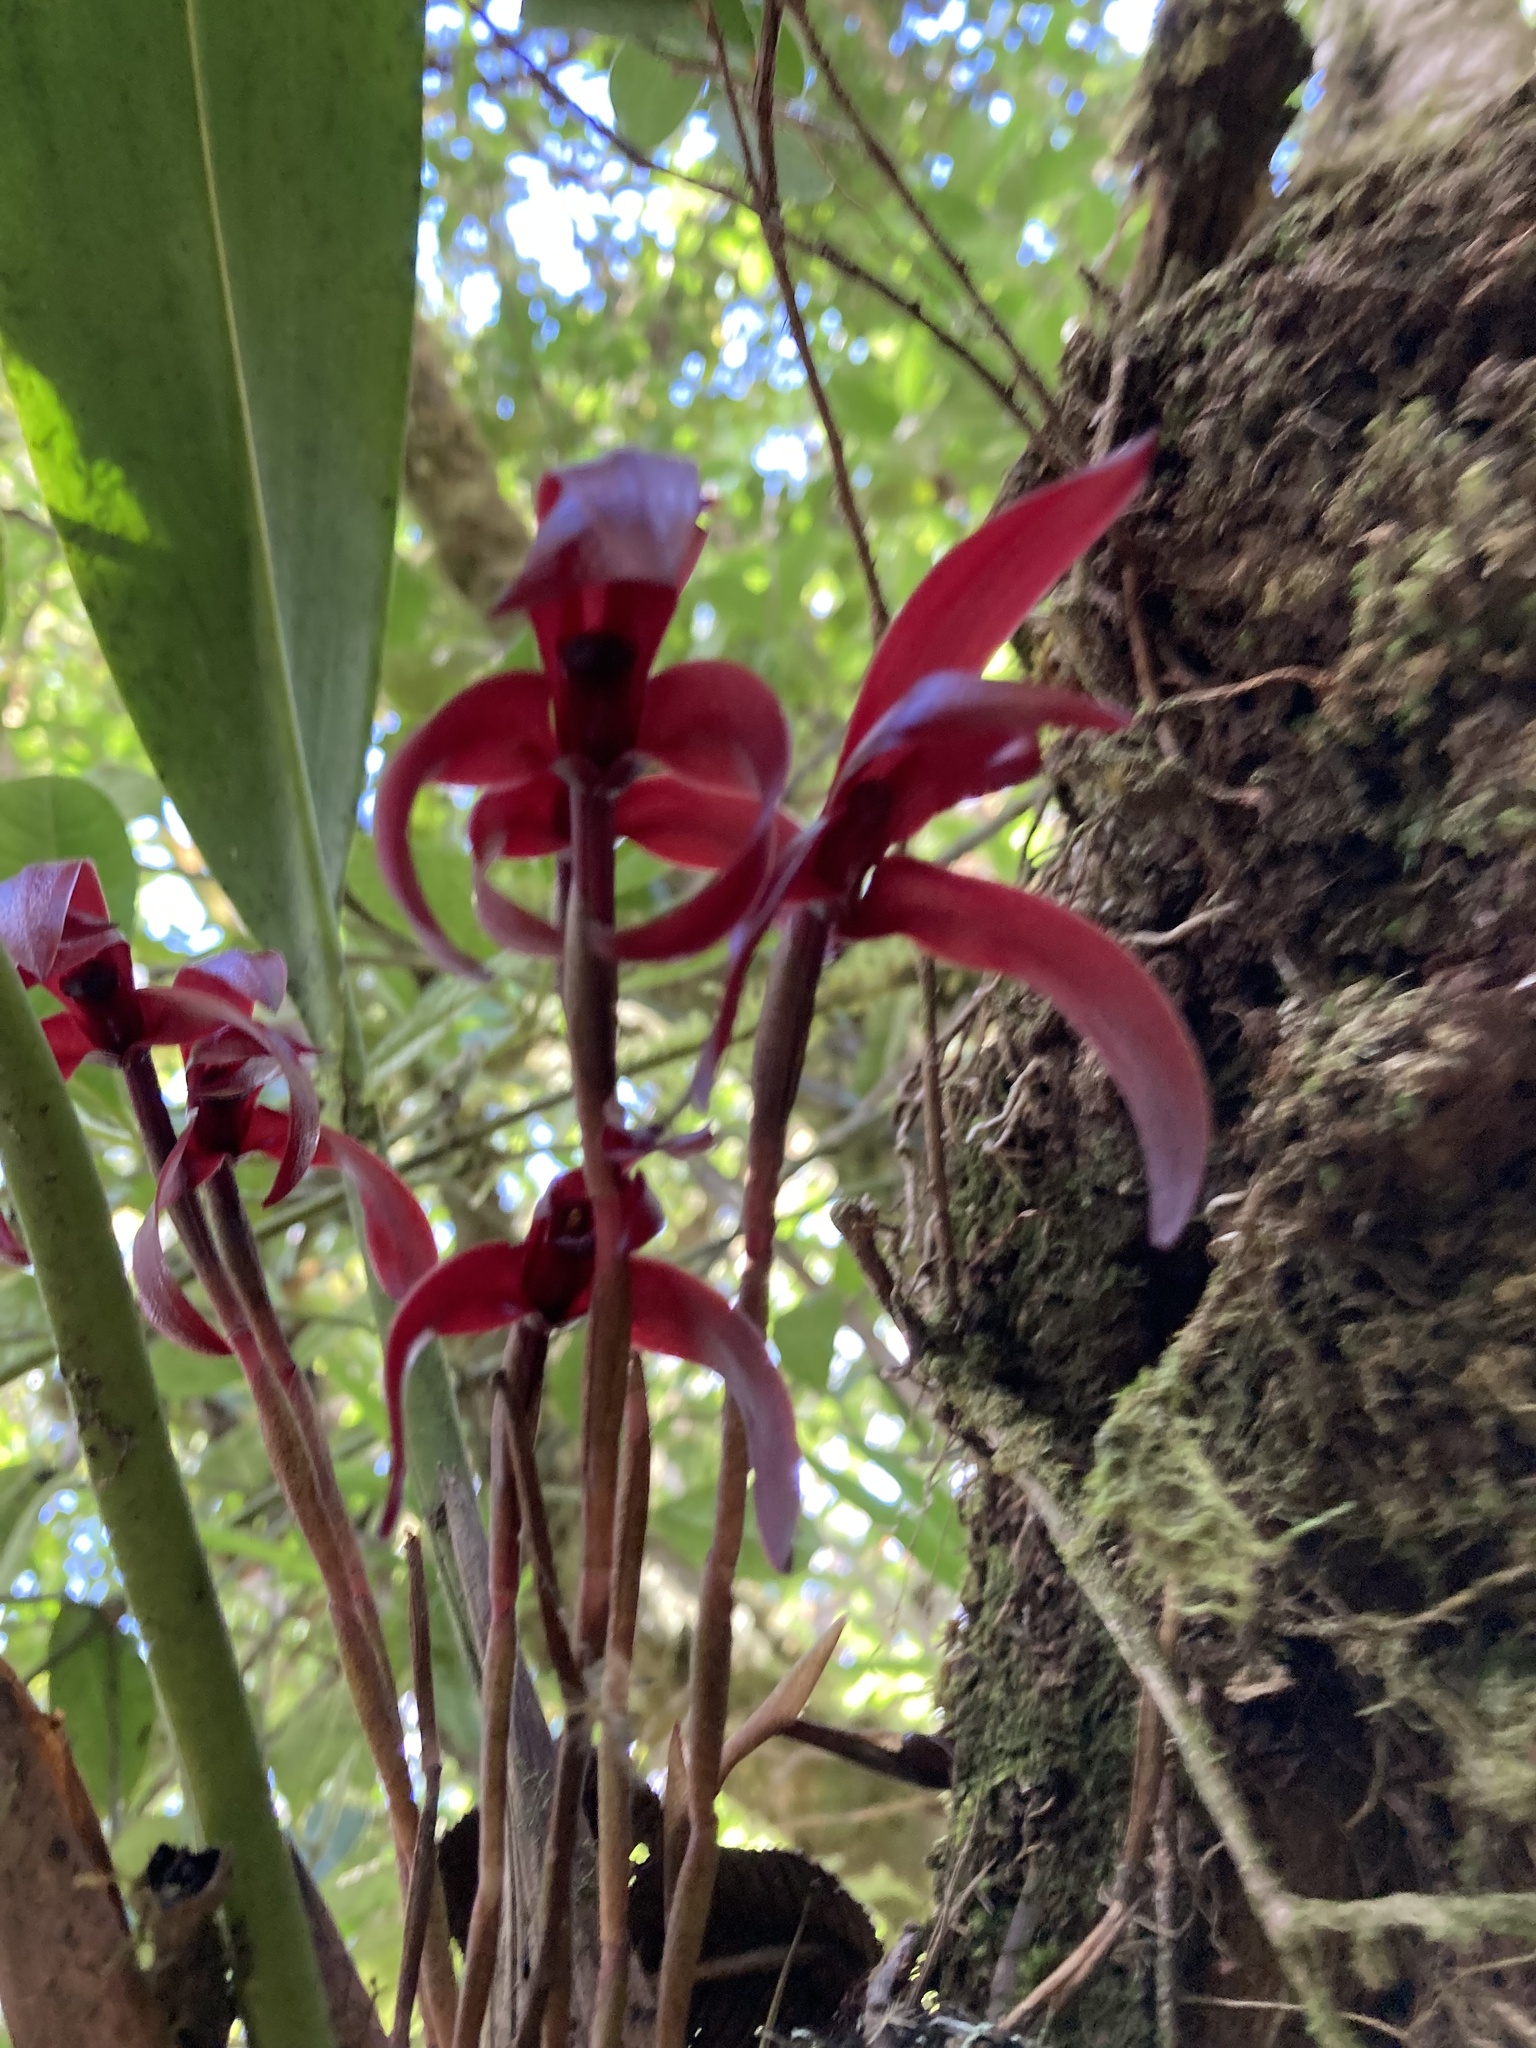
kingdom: Plantae
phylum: Tracheophyta
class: Liliopsida
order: Asparagales
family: Orchidaceae
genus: Maxillaria
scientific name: Maxillaria calantha
